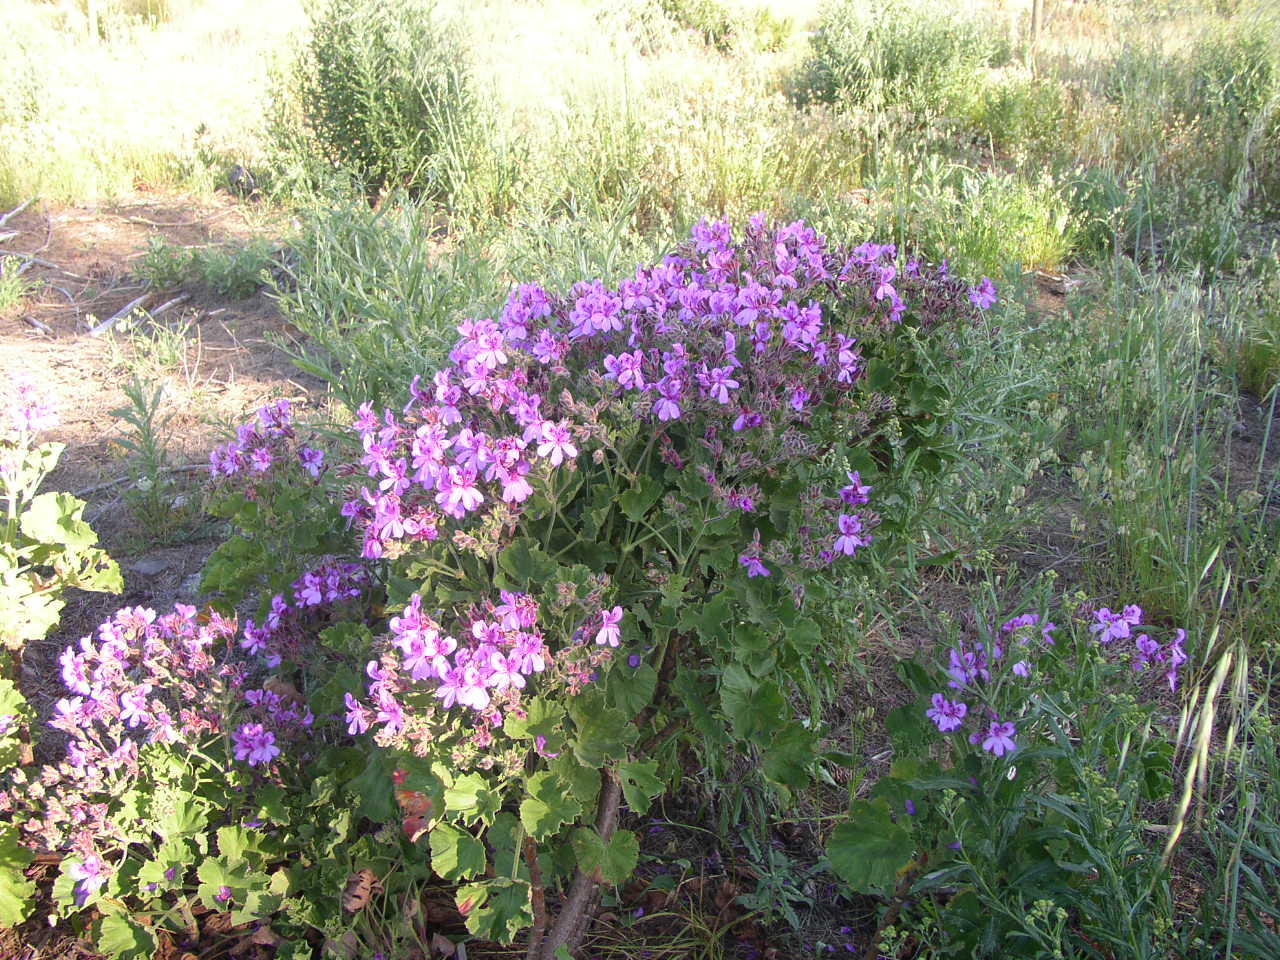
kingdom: Plantae
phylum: Tracheophyta
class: Magnoliopsida
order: Geraniales
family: Geraniaceae
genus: Pelargonium
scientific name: Pelargonium cucullatum
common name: Tree pelargonium
